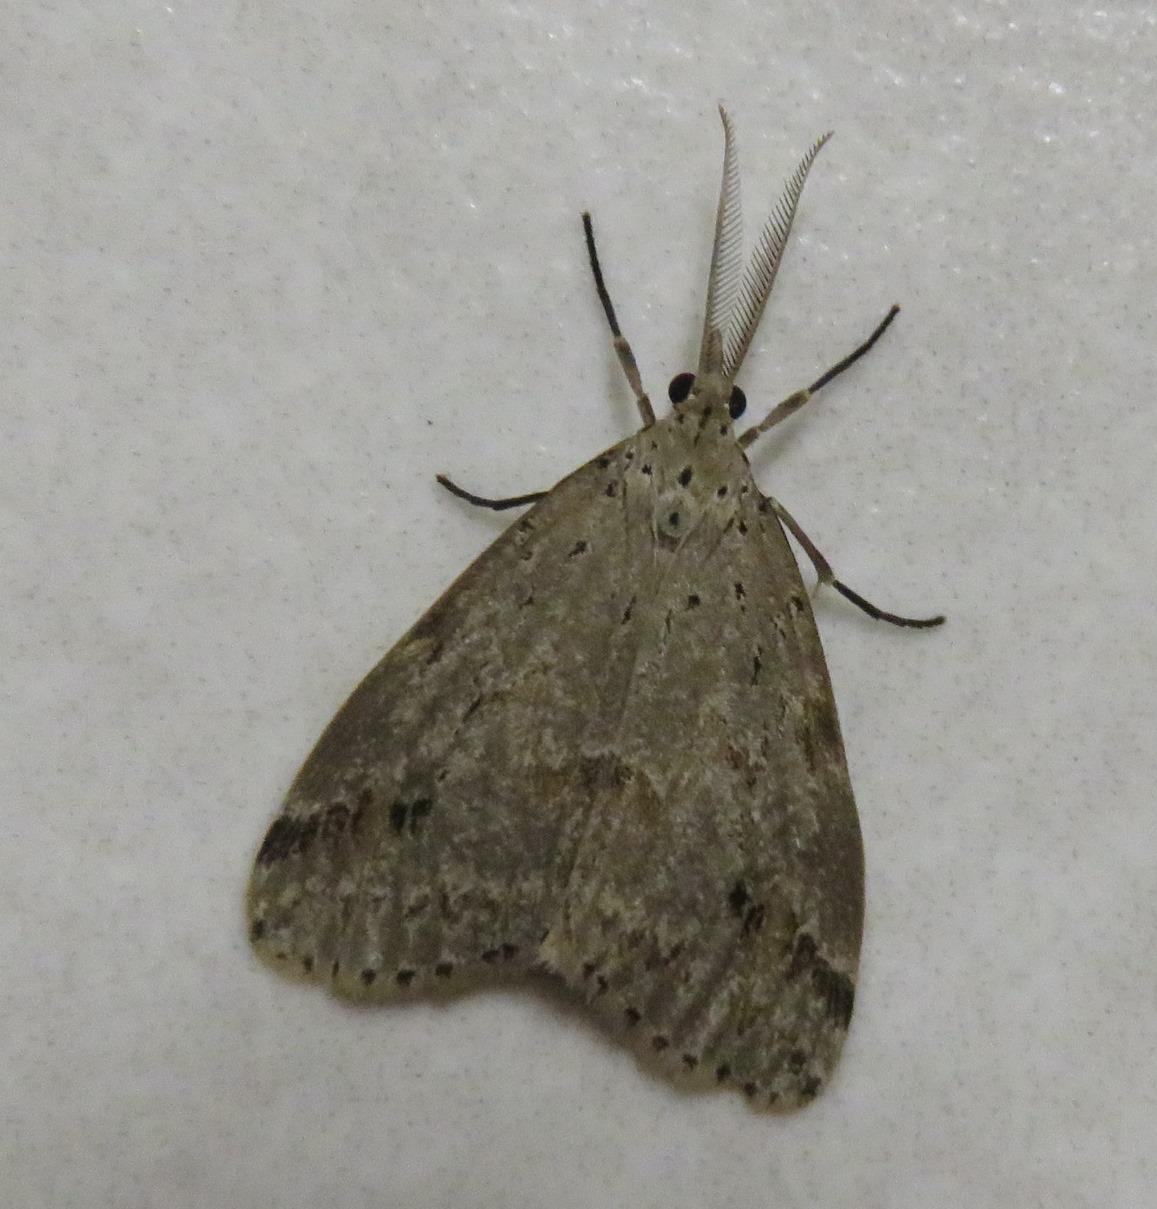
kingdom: Animalia
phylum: Arthropoda
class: Insecta
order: Lepidoptera
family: Erebidae
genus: Galtara
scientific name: Galtara rostrata
